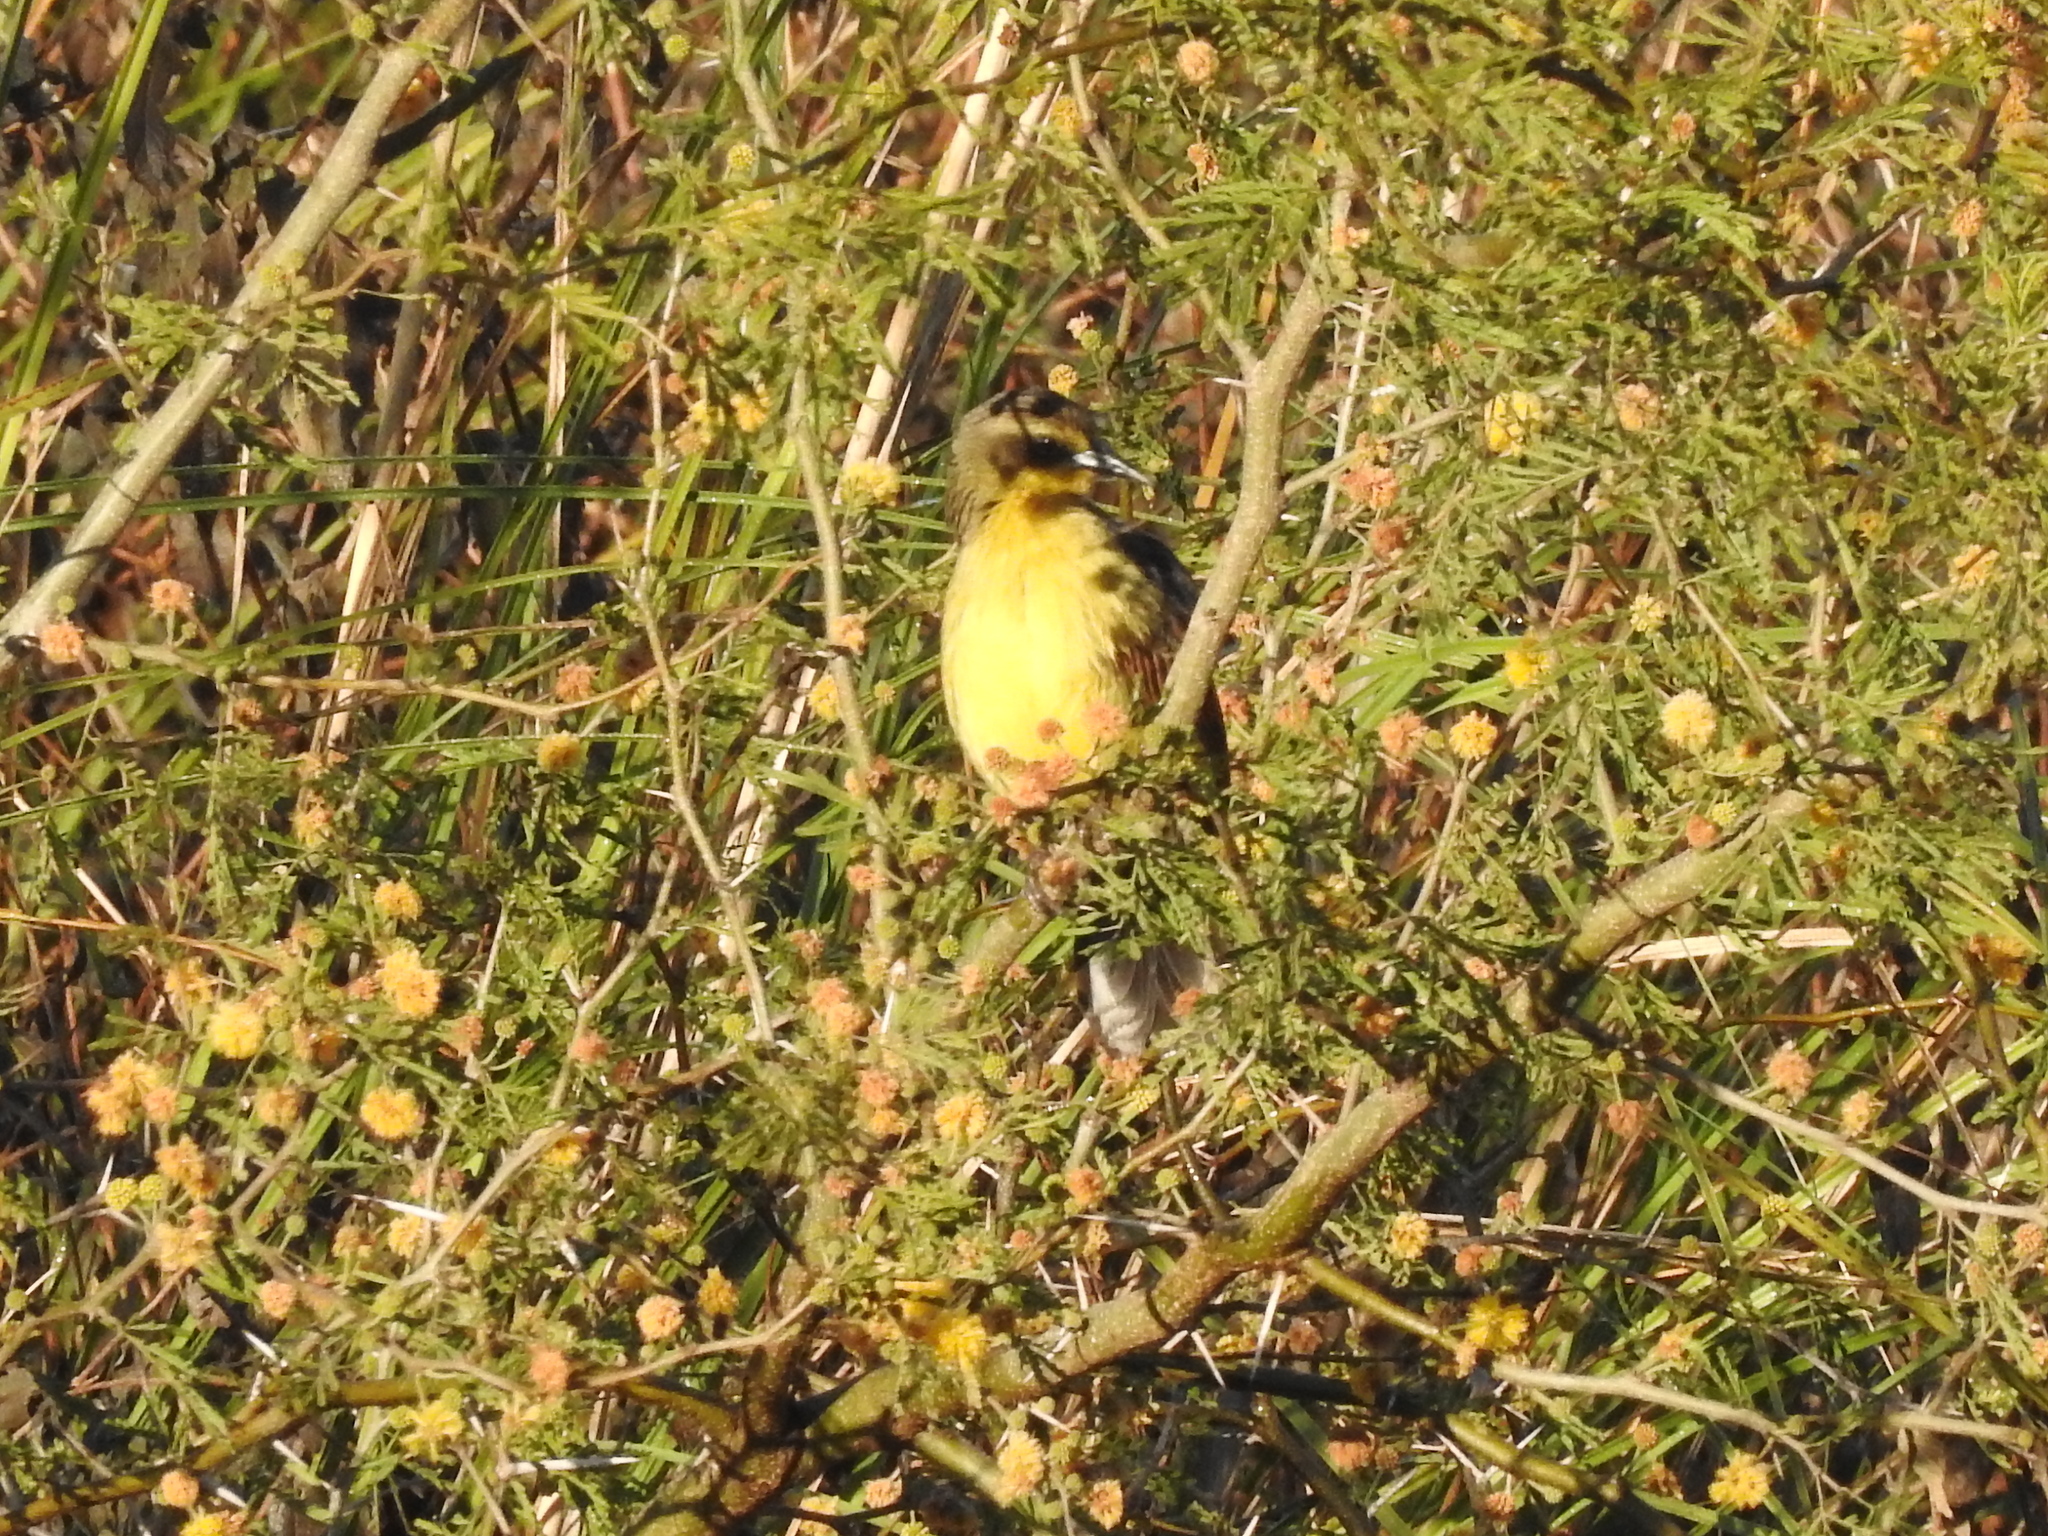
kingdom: Animalia
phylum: Chordata
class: Aves
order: Passeriformes
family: Icteridae
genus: Agelasticus
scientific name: Agelasticus cyanopus
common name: Unicolored blackbird
